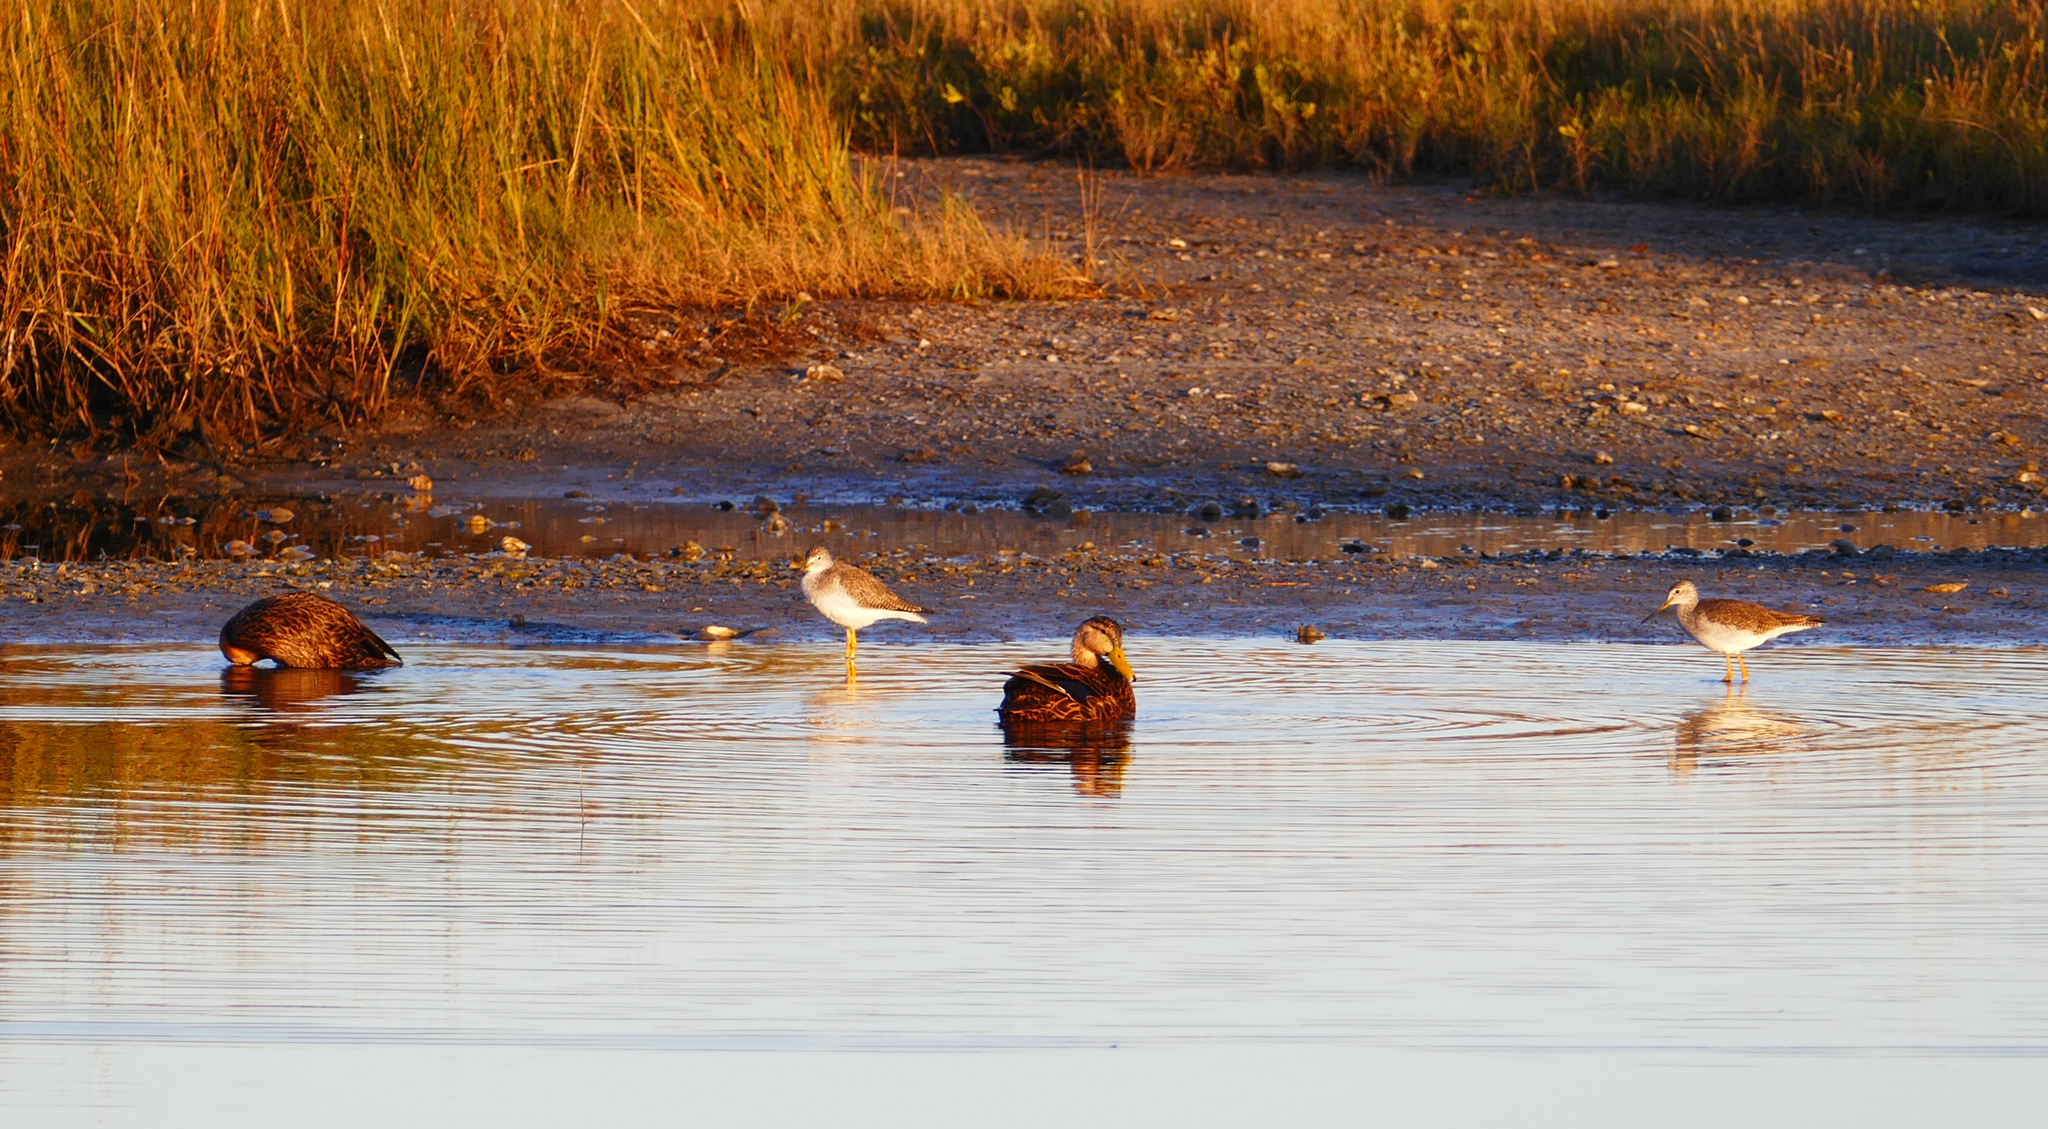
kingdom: Animalia
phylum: Chordata
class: Aves
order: Anseriformes
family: Anatidae
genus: Anas
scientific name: Anas fulvigula
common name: Mottled duck
